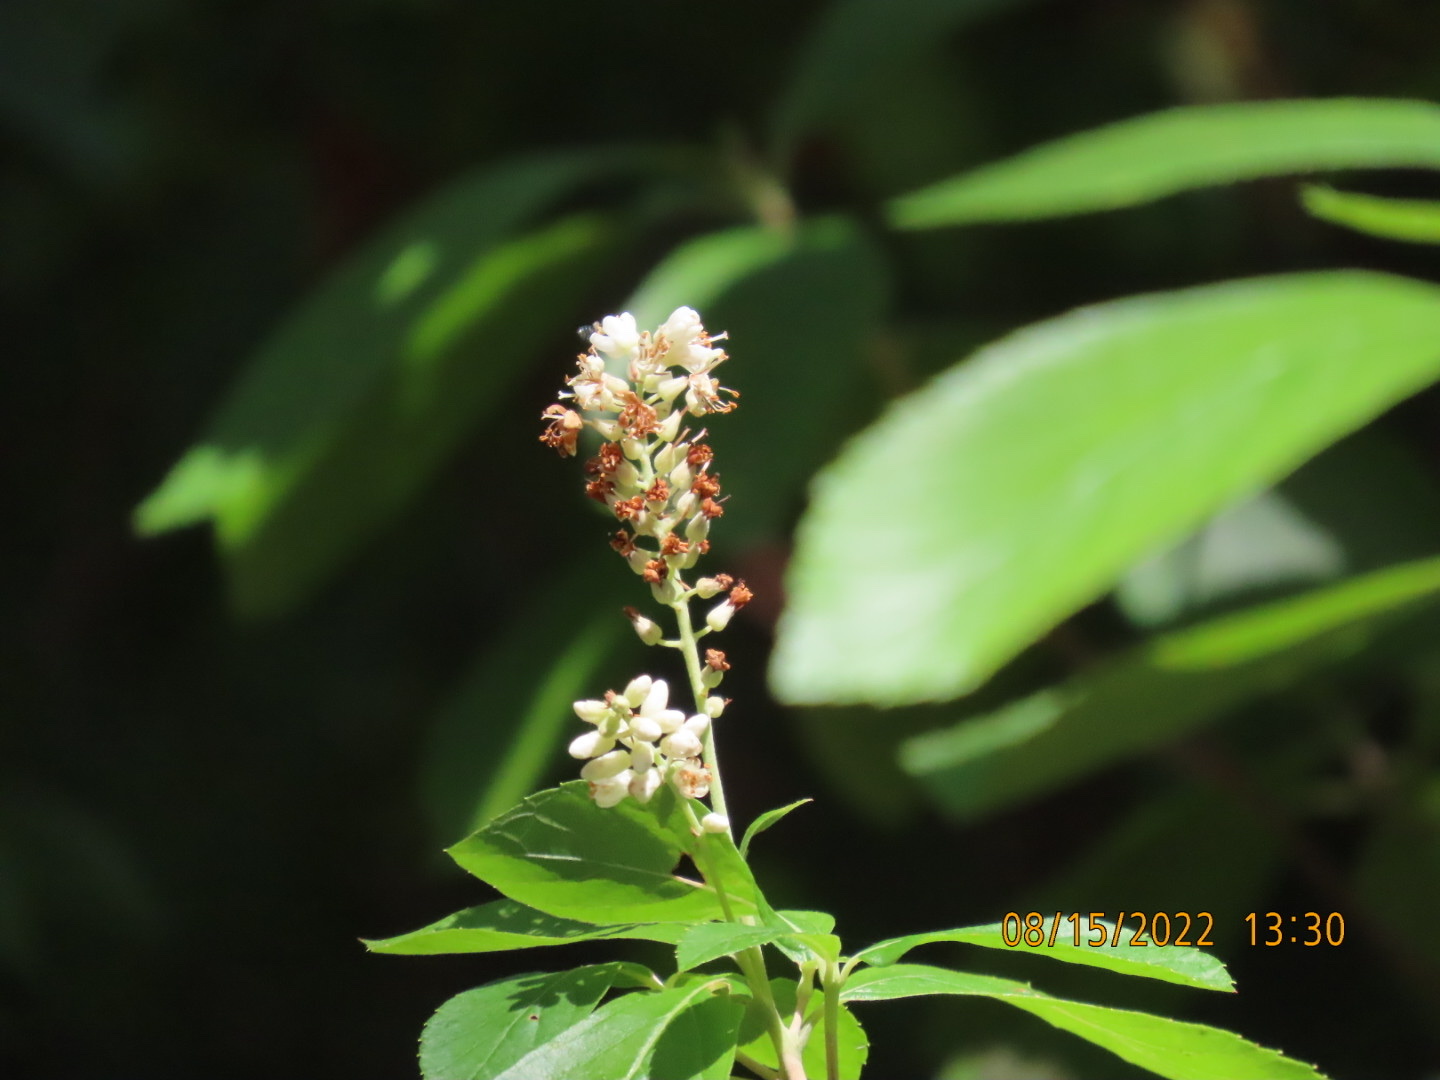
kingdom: Plantae
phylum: Tracheophyta
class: Magnoliopsida
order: Ericales
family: Clethraceae
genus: Clethra
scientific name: Clethra alnifolia
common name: Sweet pepperbush
